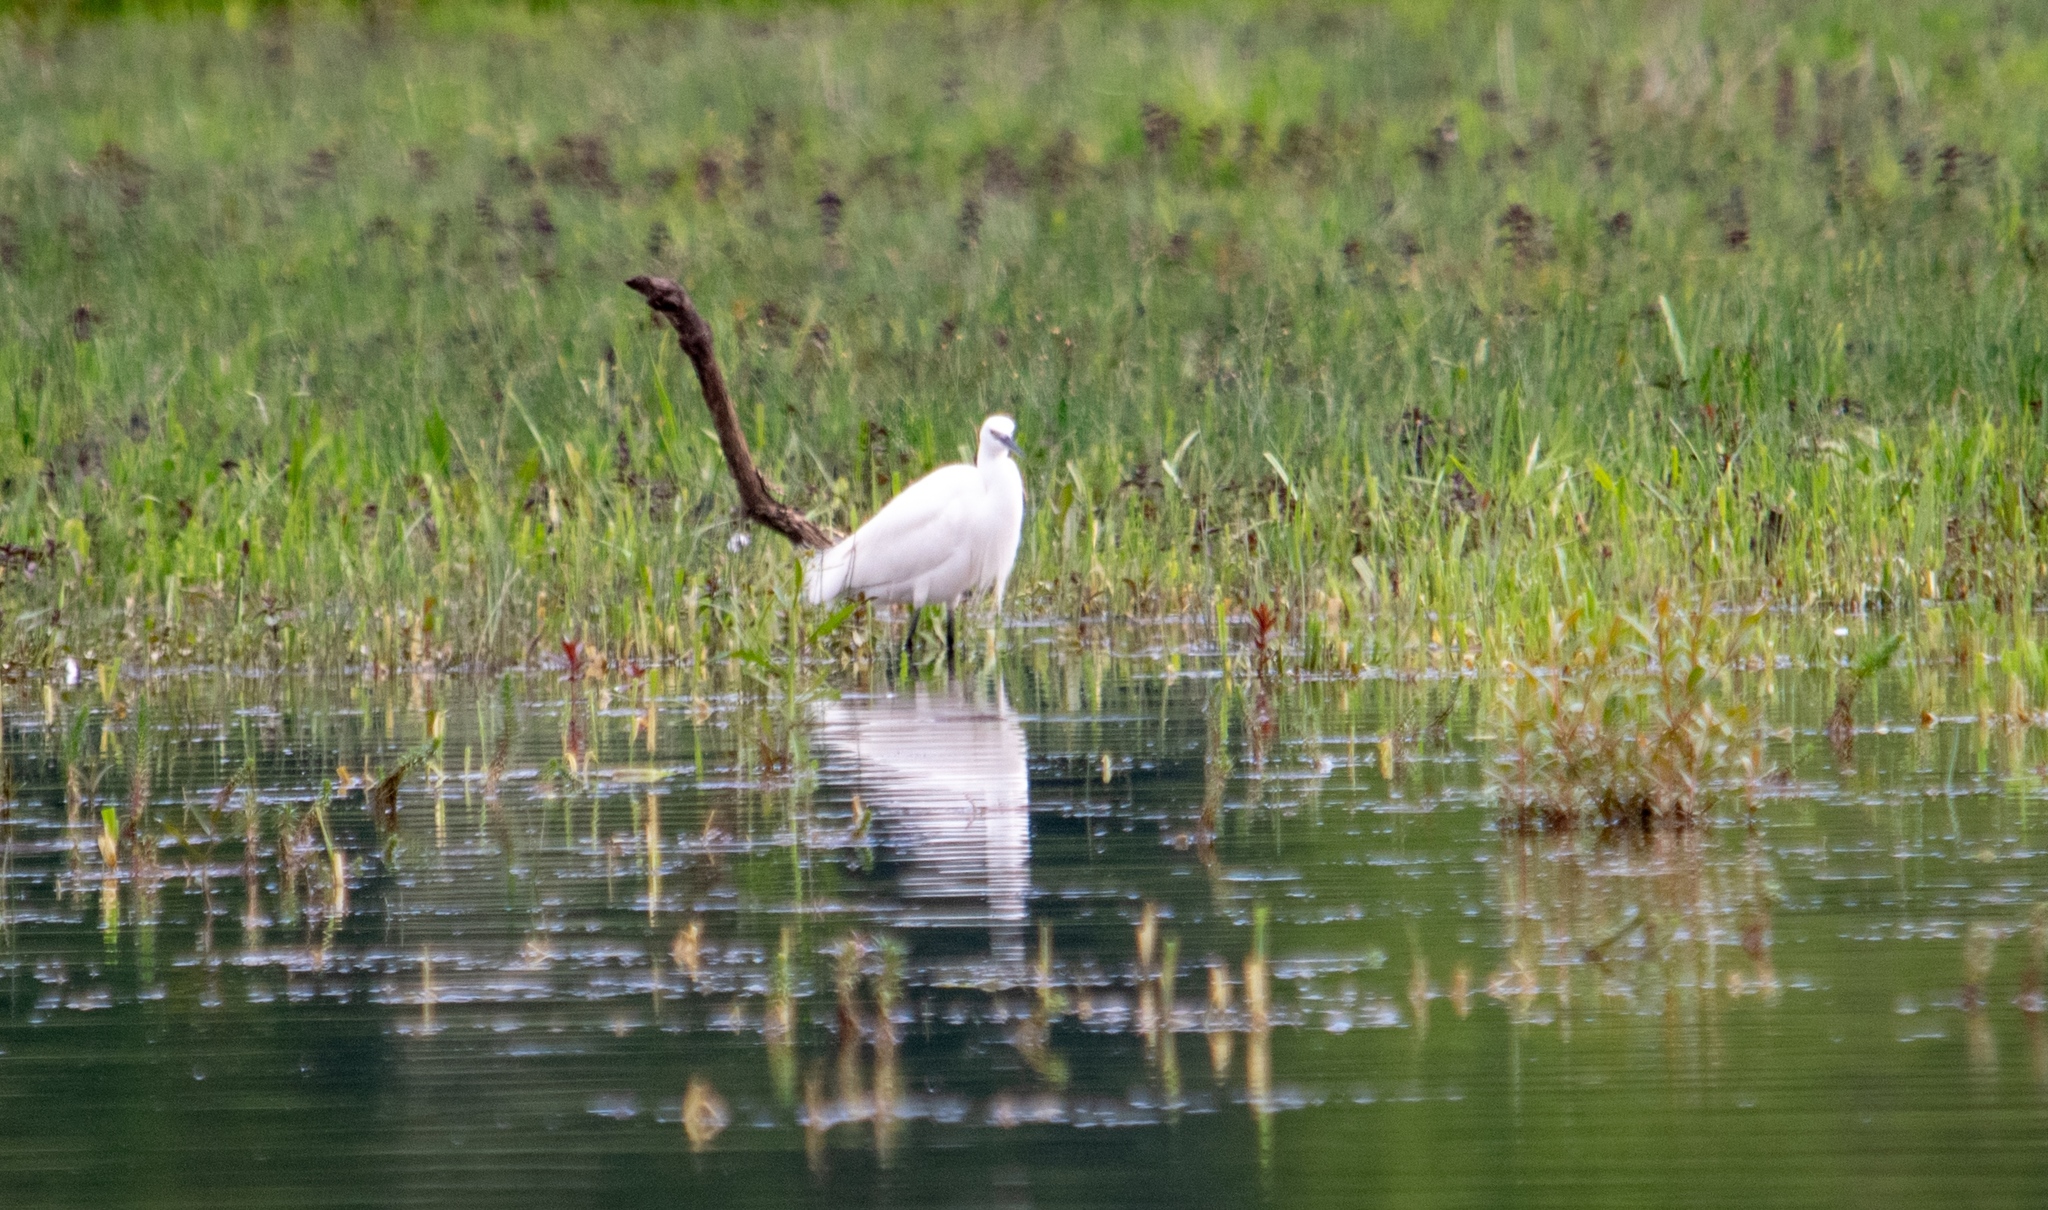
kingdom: Animalia
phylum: Chordata
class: Aves
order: Pelecaniformes
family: Ardeidae
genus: Egretta
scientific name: Egretta garzetta
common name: Little egret
